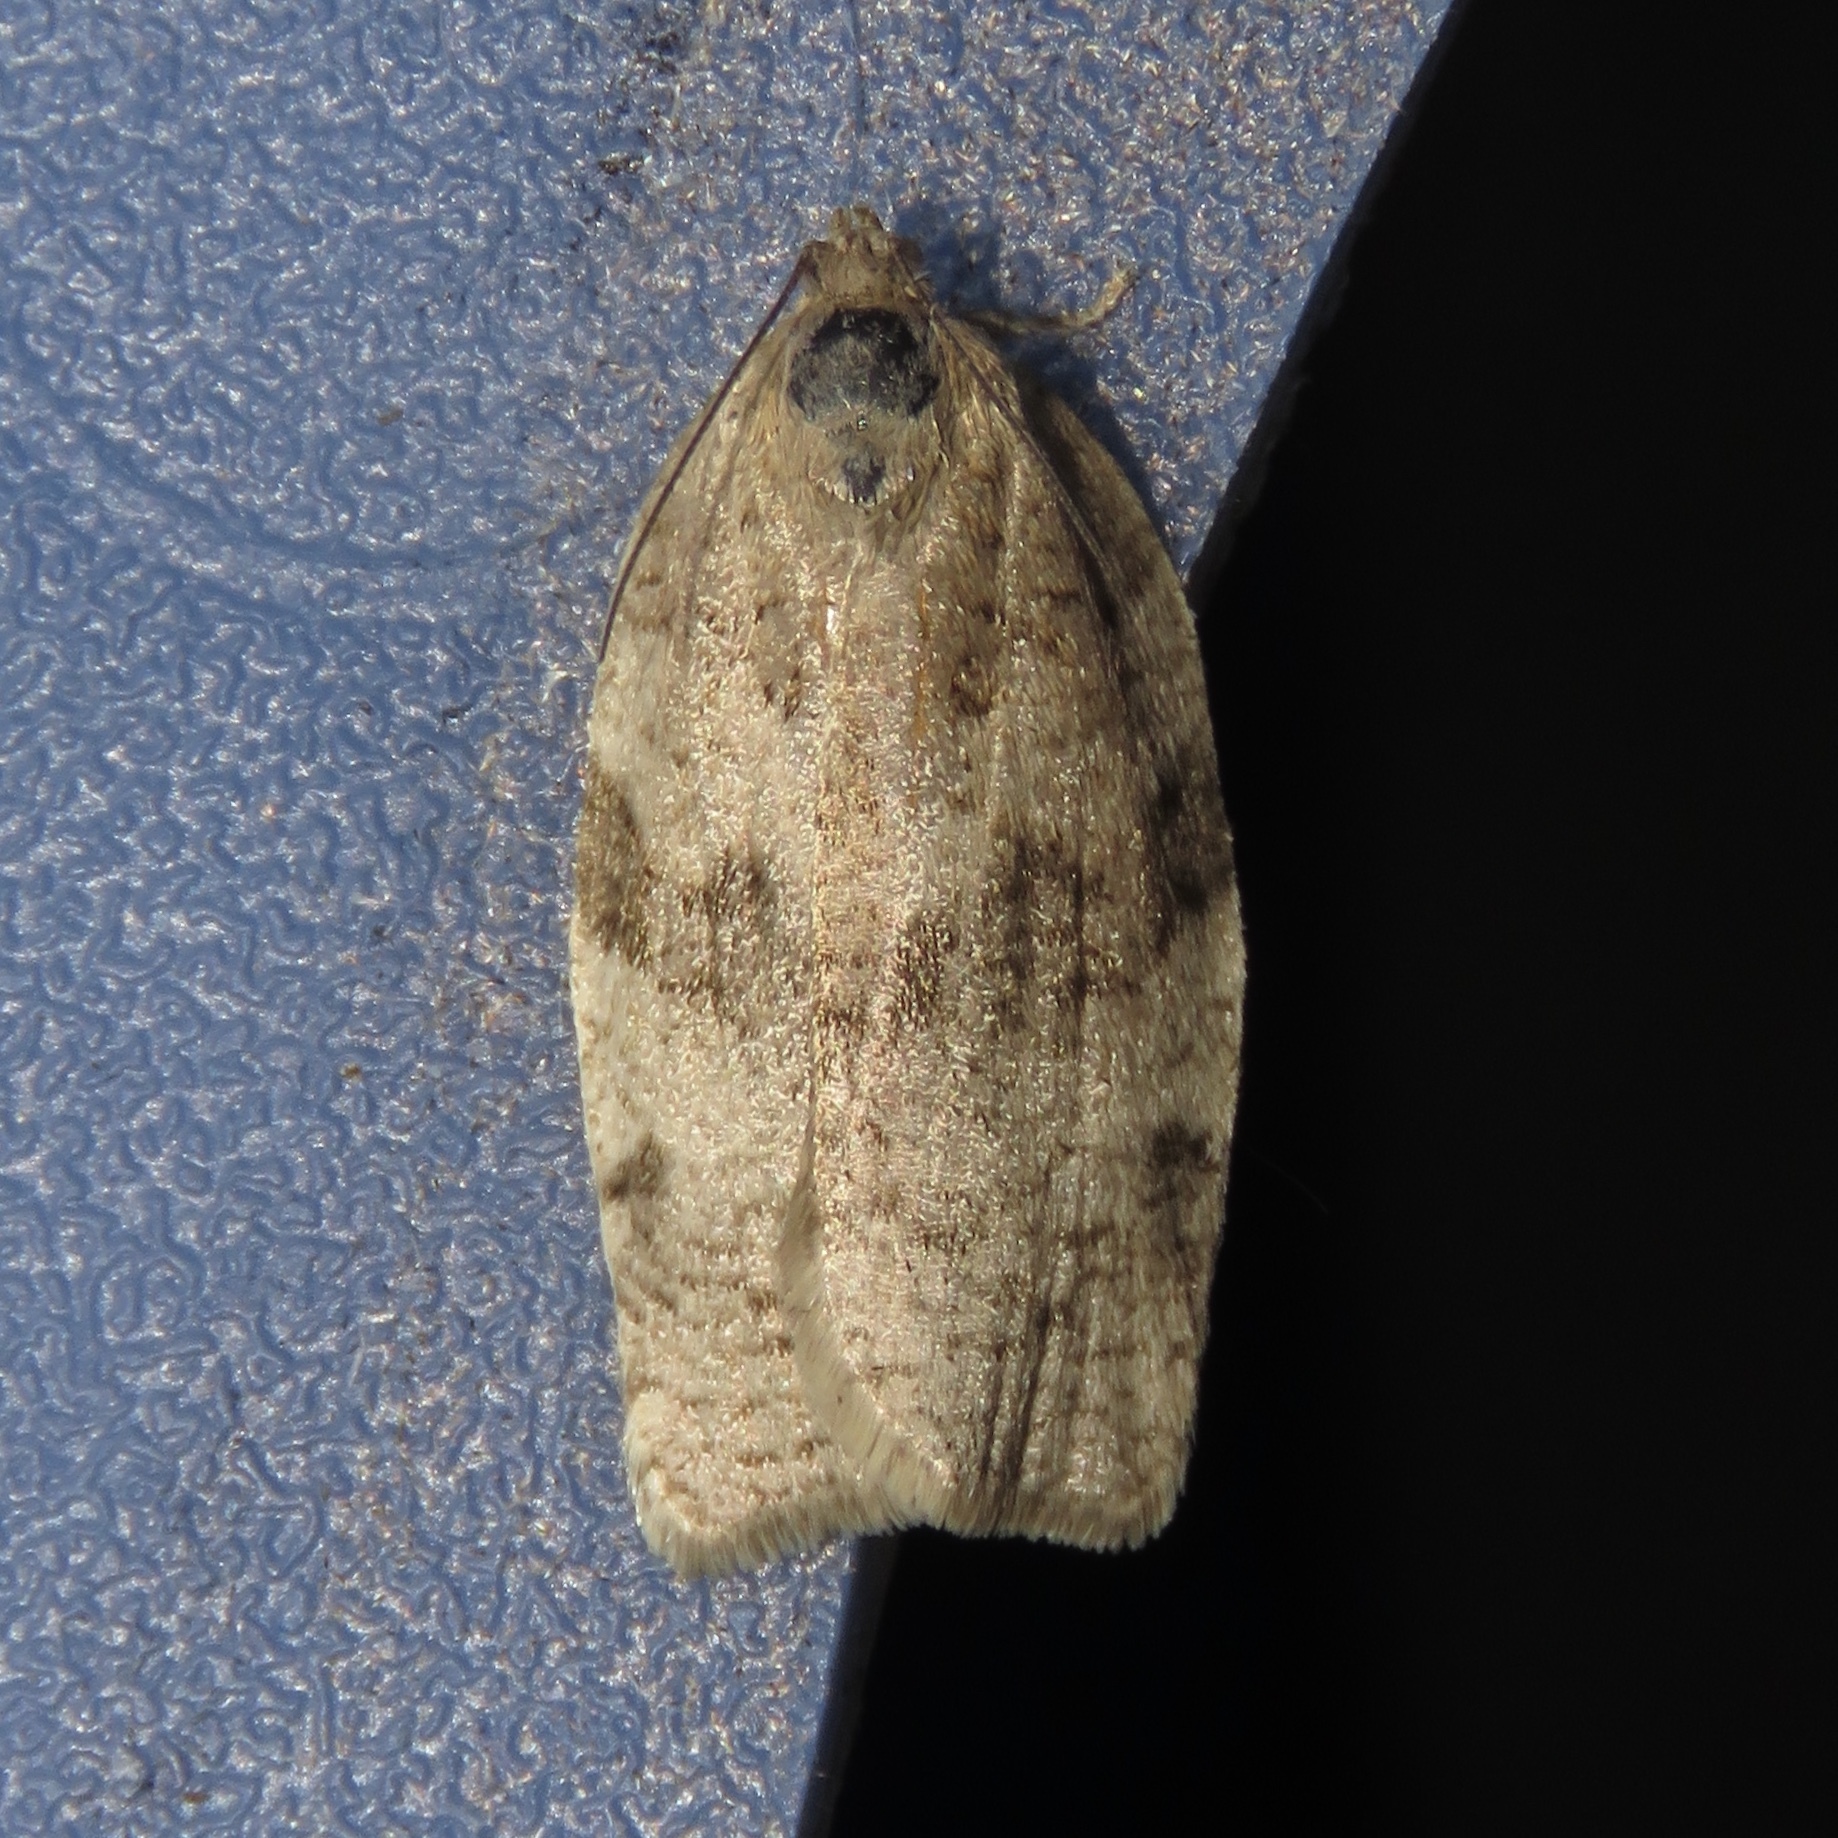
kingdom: Animalia
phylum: Arthropoda
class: Insecta
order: Lepidoptera
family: Tortricidae
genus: Choristoneura
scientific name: Choristoneura conflictana
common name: Large aspen tortrix
